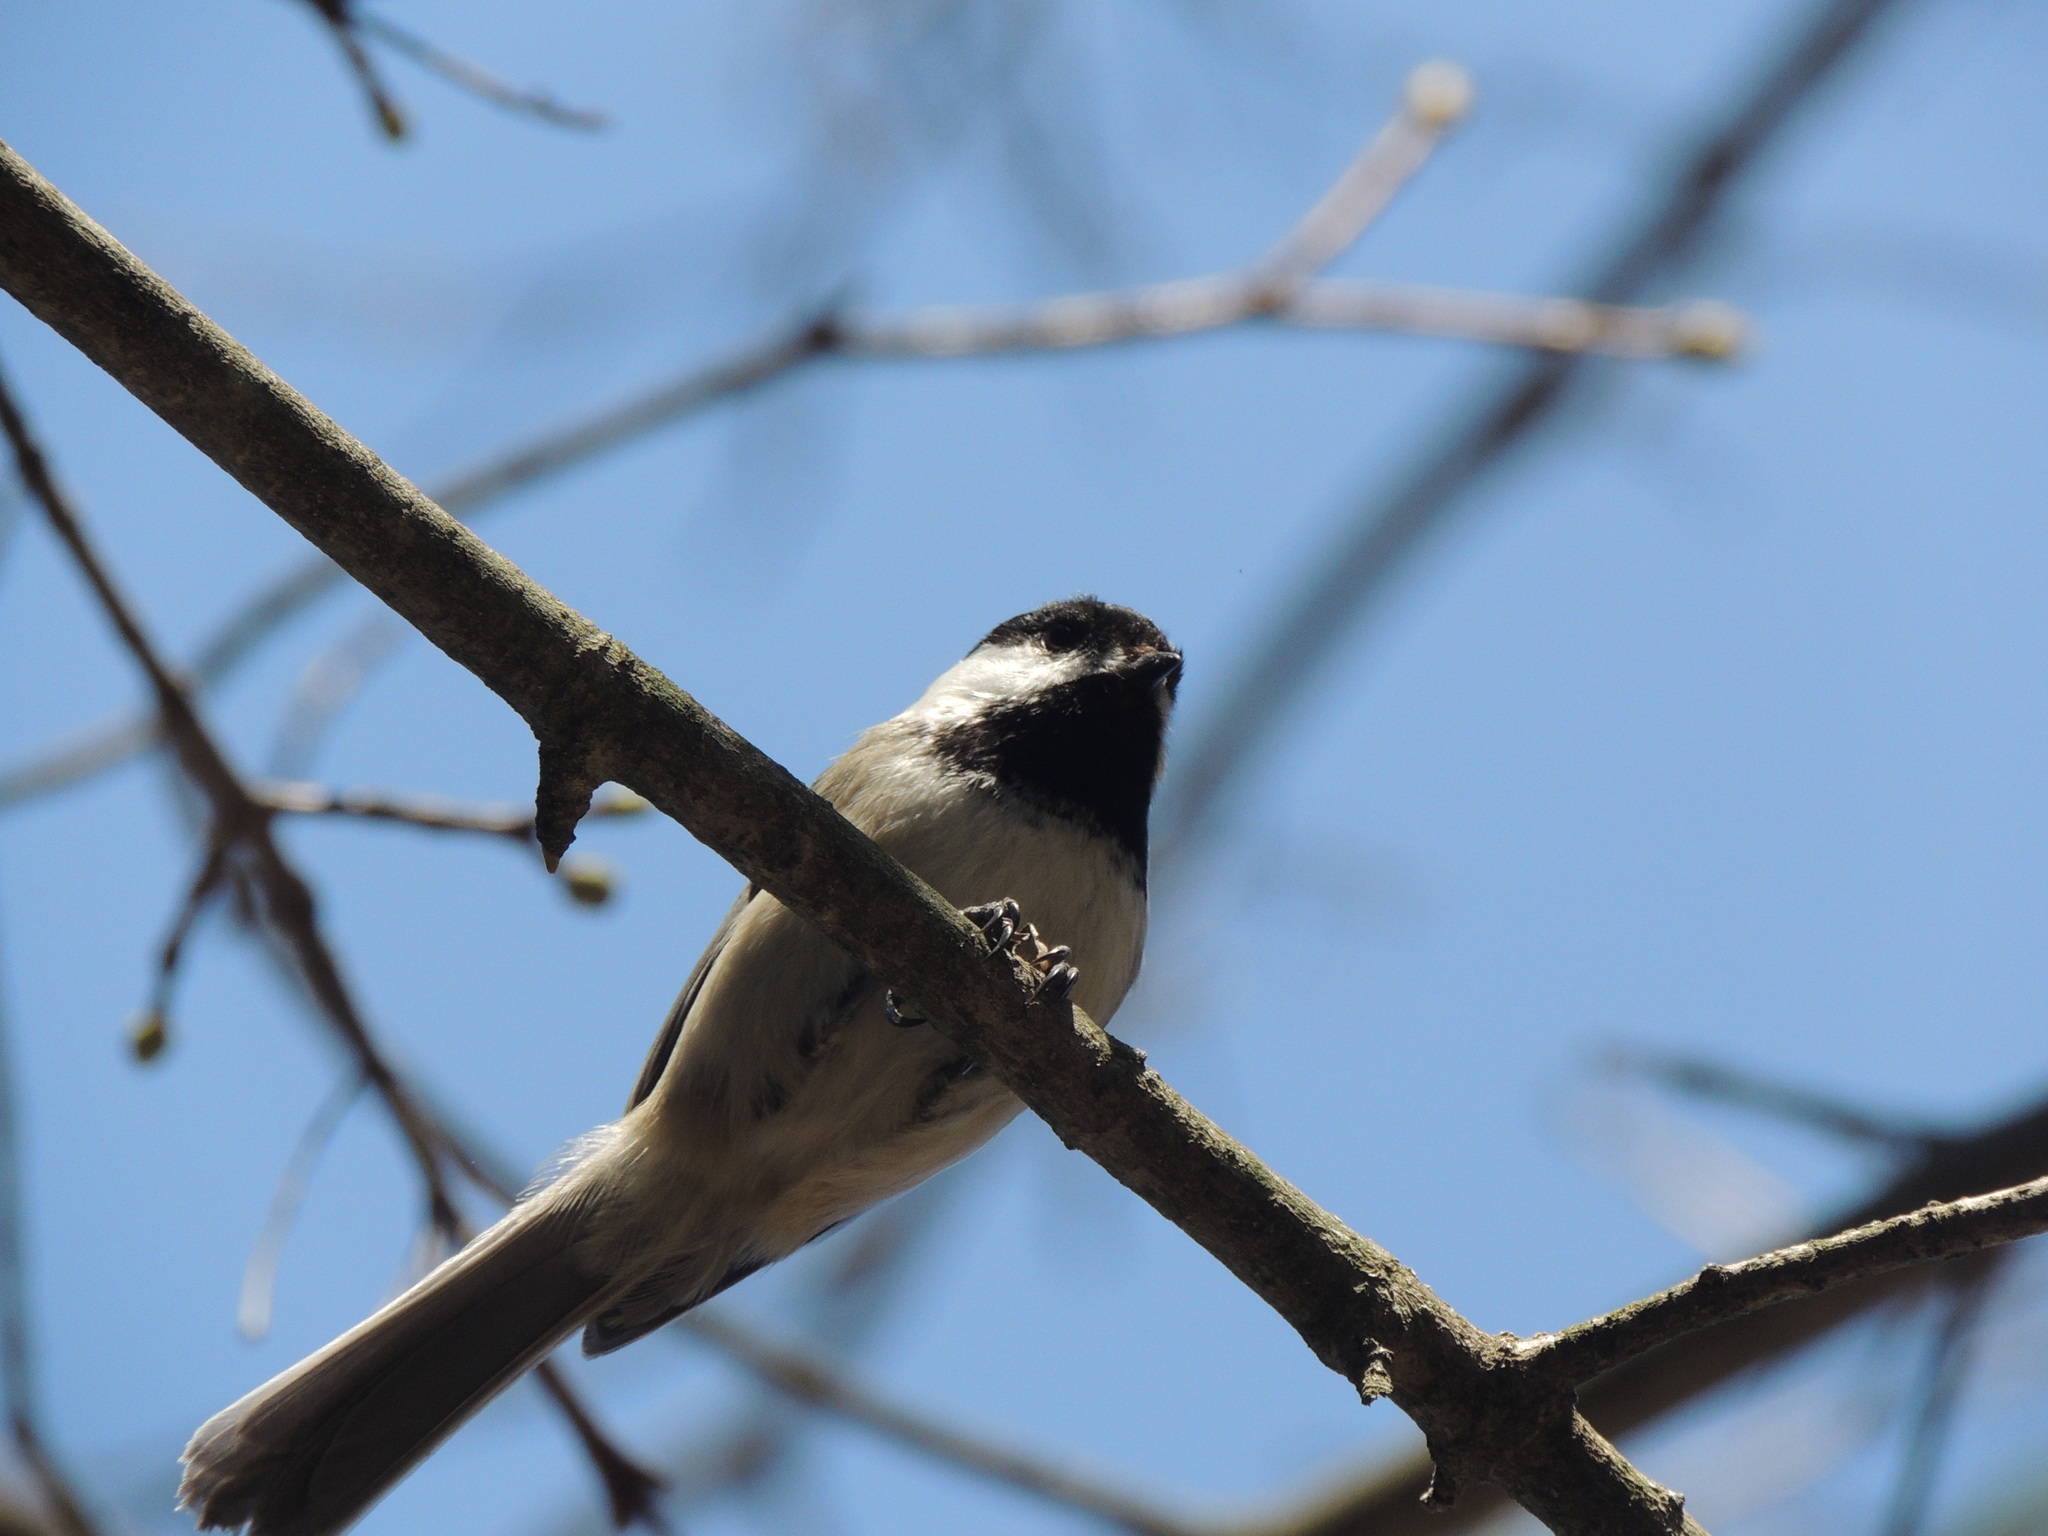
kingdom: Animalia
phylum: Chordata
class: Aves
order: Passeriformes
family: Paridae
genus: Poecile
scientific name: Poecile atricapillus
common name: Black-capped chickadee
